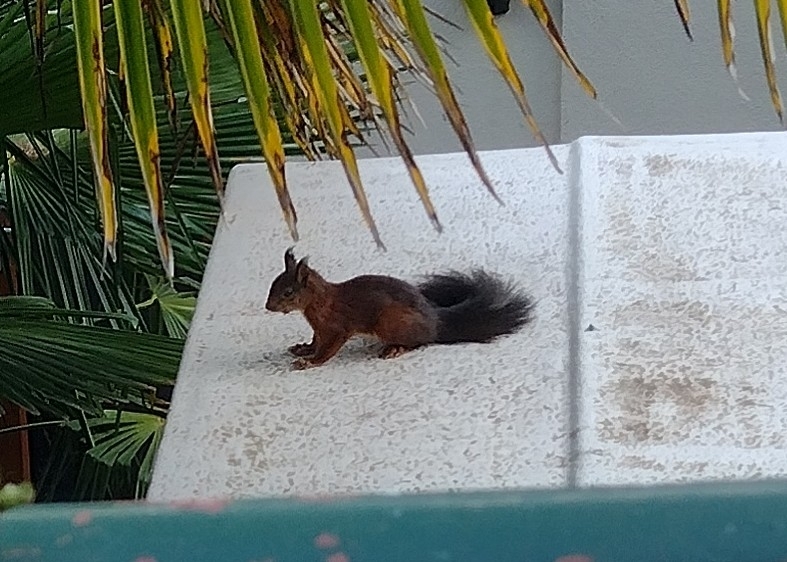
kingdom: Animalia
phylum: Chordata
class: Mammalia
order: Rodentia
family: Sciuridae
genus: Sciurus
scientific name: Sciurus vulgaris
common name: Eurasian red squirrel
